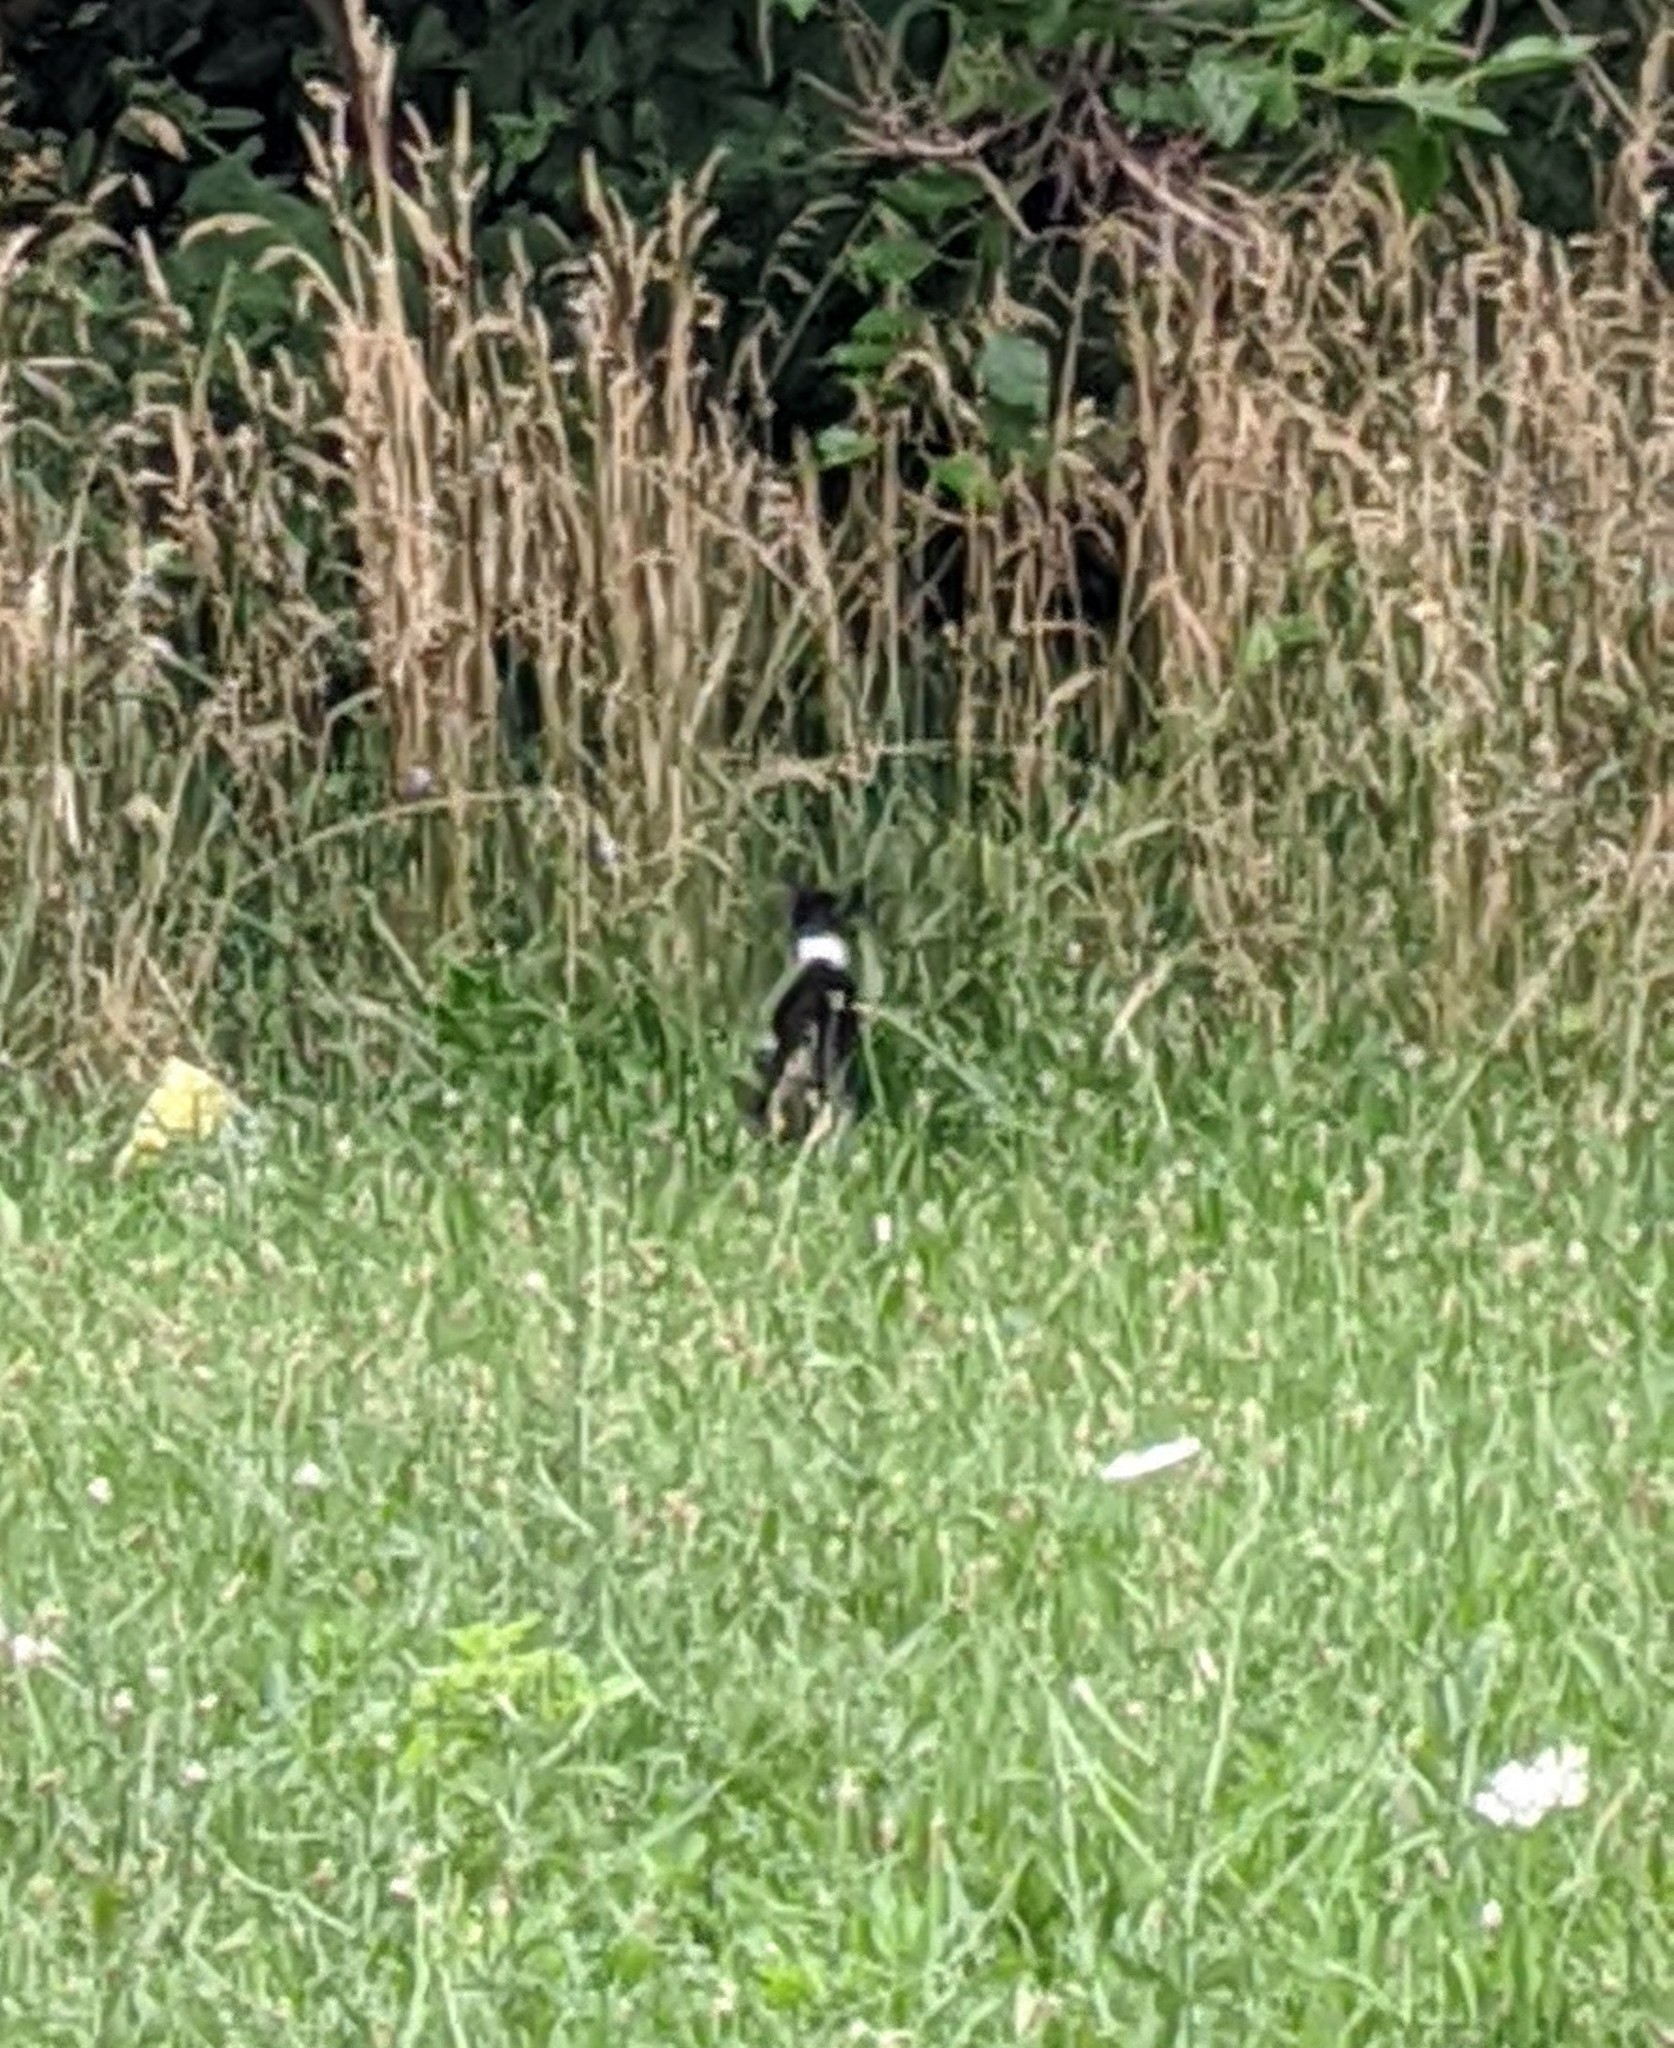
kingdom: Animalia
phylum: Chordata
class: Mammalia
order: Carnivora
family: Felidae
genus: Felis
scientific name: Felis catus
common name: Domestic cat
